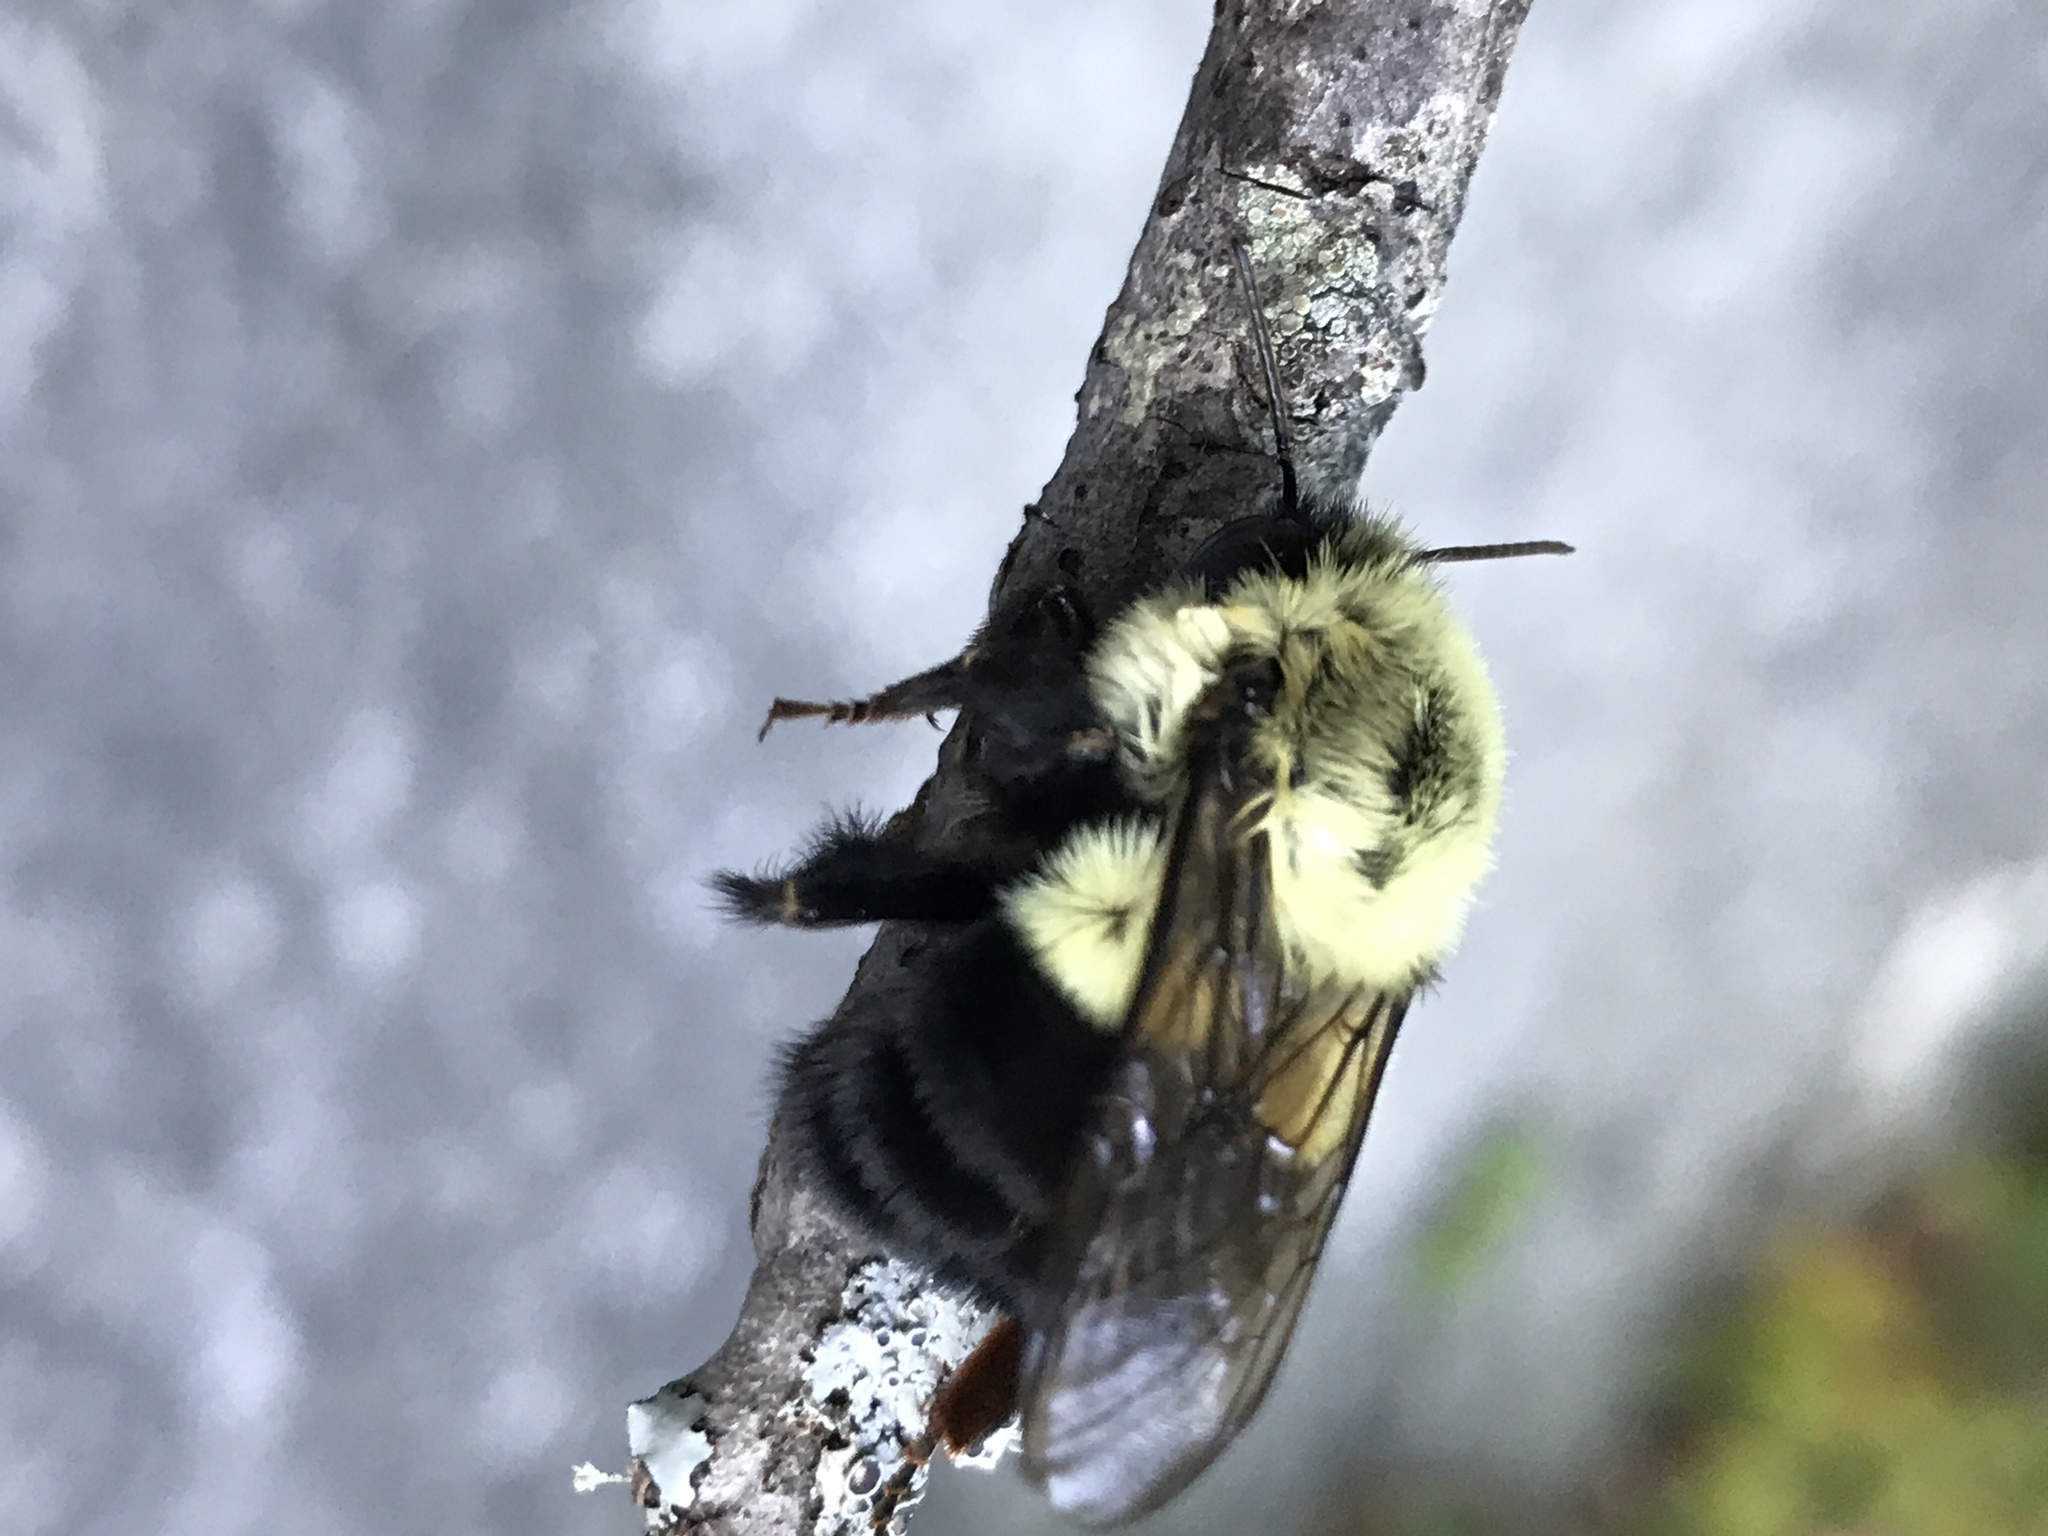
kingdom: Animalia
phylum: Arthropoda
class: Insecta
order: Hymenoptera
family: Apidae
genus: Bombus
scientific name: Bombus impatiens
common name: Common eastern bumble bee
